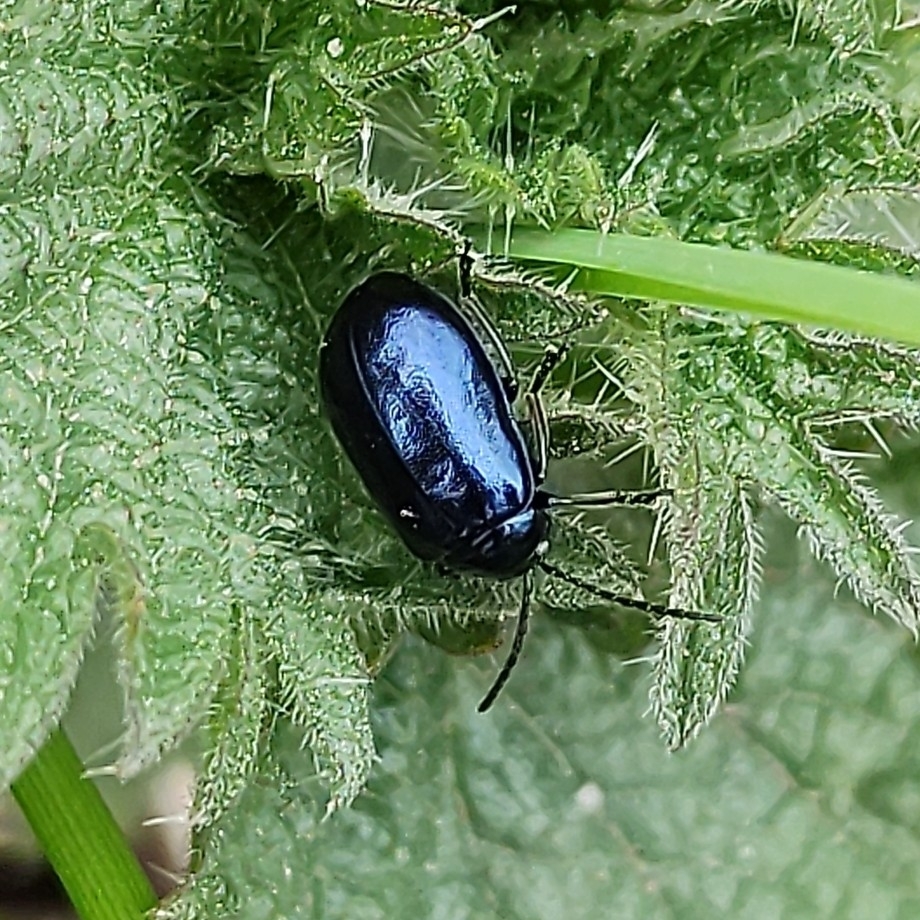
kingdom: Animalia
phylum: Arthropoda
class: Insecta
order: Coleoptera
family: Chrysomelidae
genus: Agelastica
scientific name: Agelastica alni
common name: Alder leaf beetle
